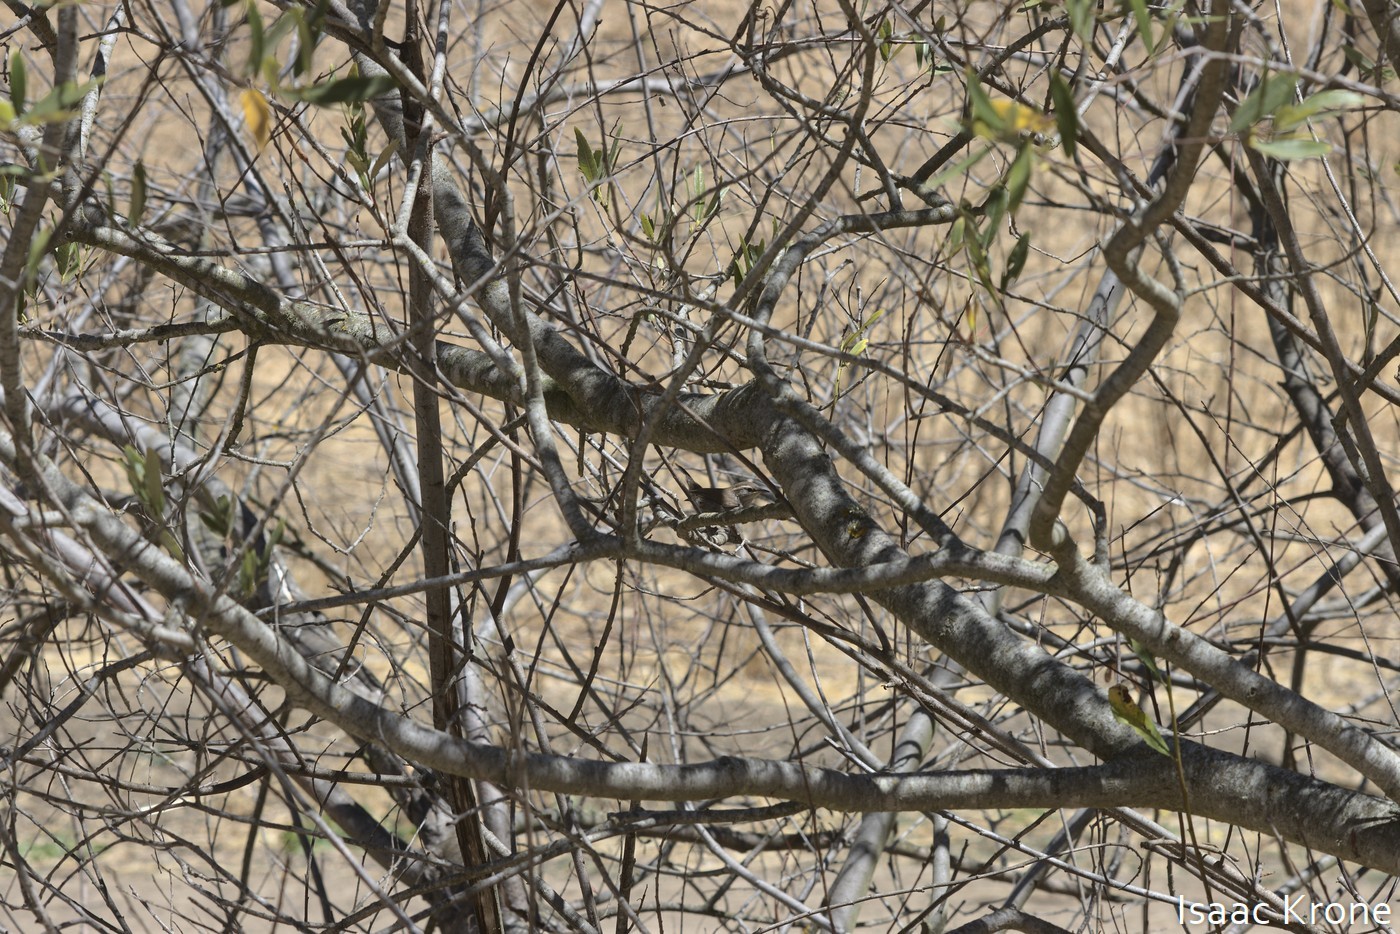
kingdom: Animalia
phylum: Chordata
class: Aves
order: Passeriformes
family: Troglodytidae
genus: Thryomanes
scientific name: Thryomanes bewickii
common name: Bewick's wren
